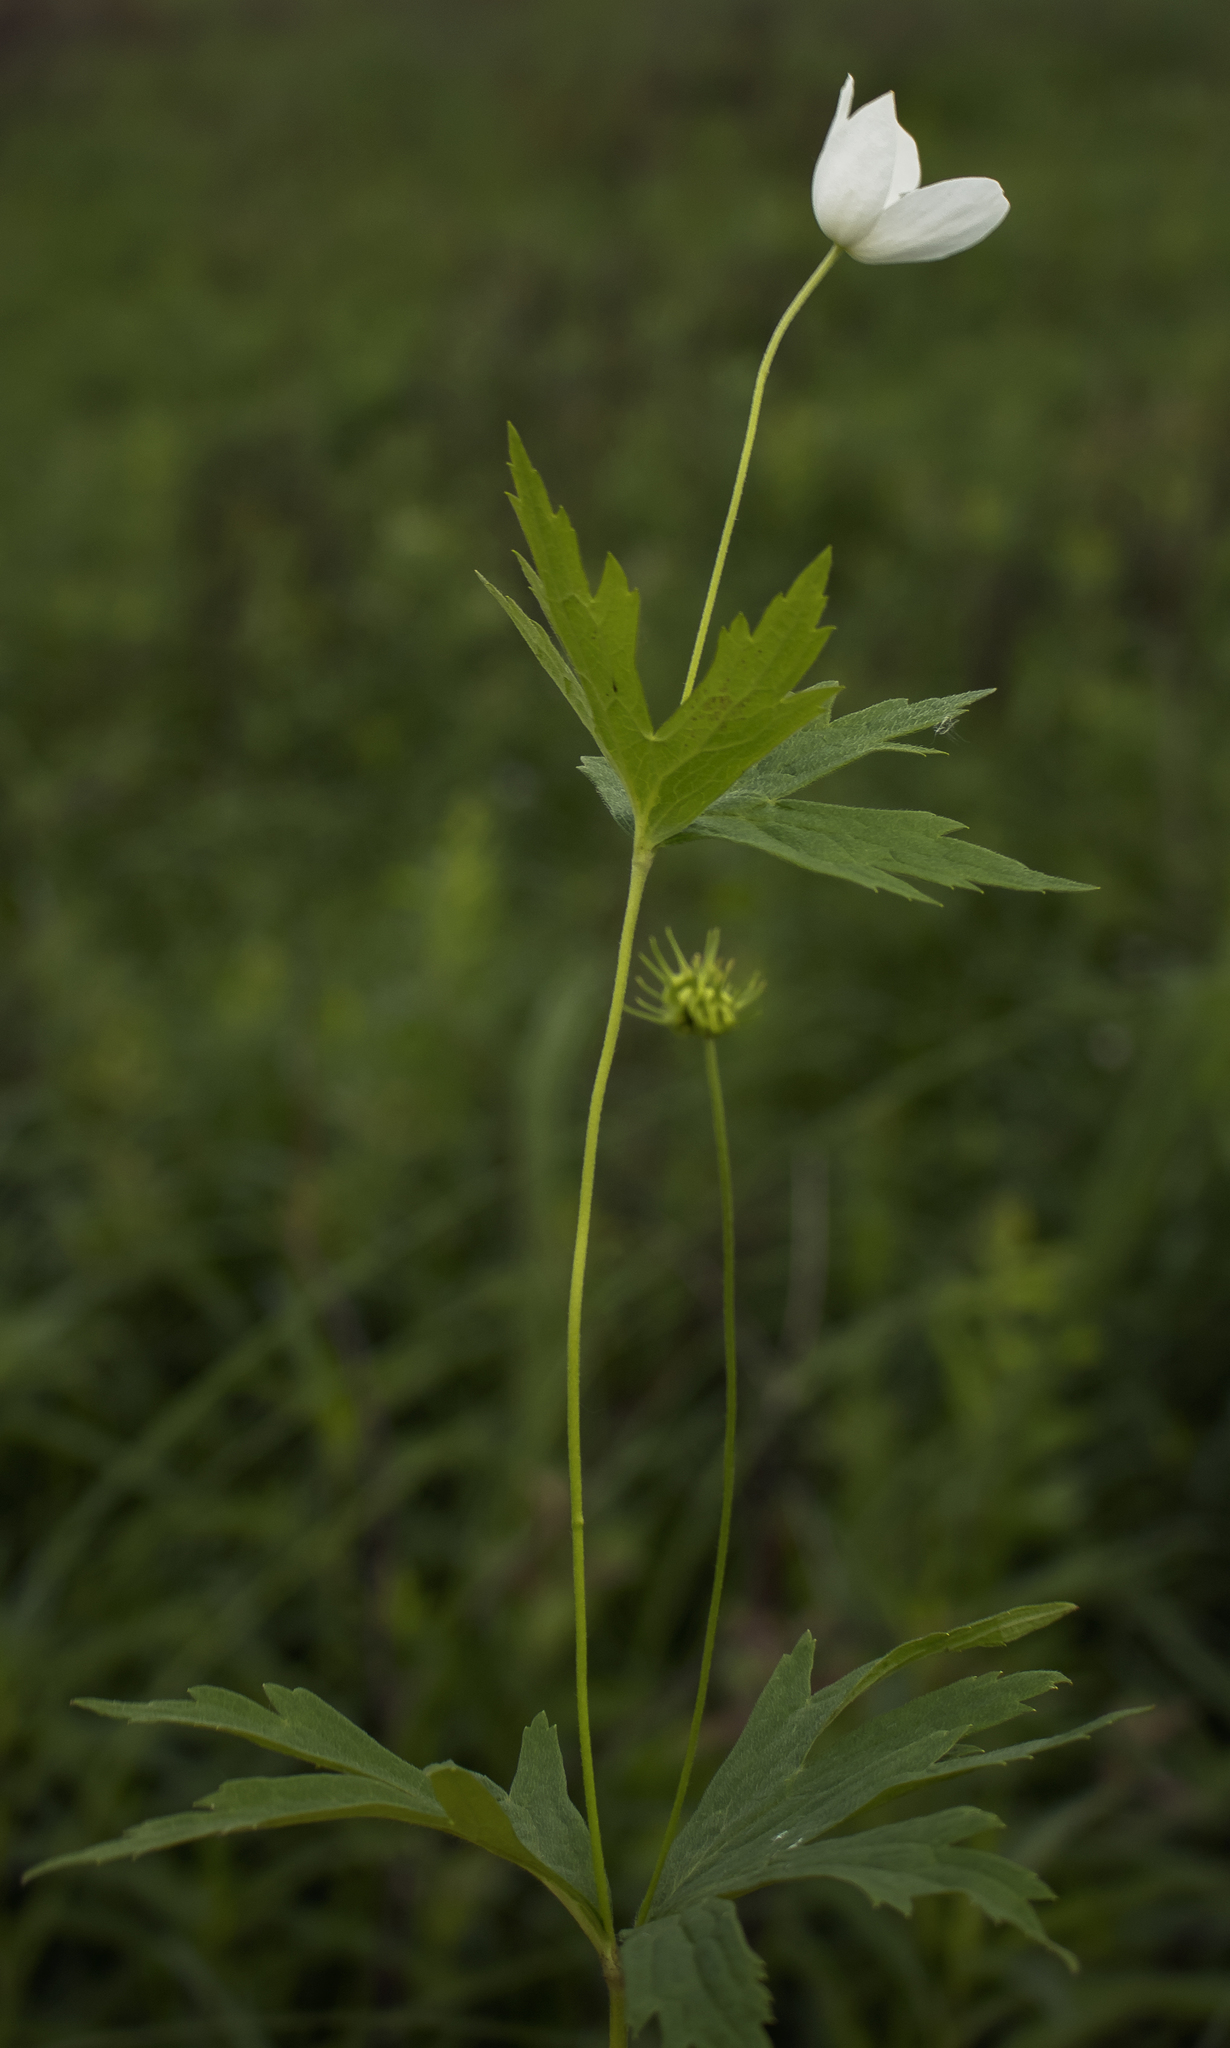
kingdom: Plantae
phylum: Tracheophyta
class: Magnoliopsida
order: Ranunculales
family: Ranunculaceae
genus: Anemonastrum
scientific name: Anemonastrum canadense
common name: Canada anemone
